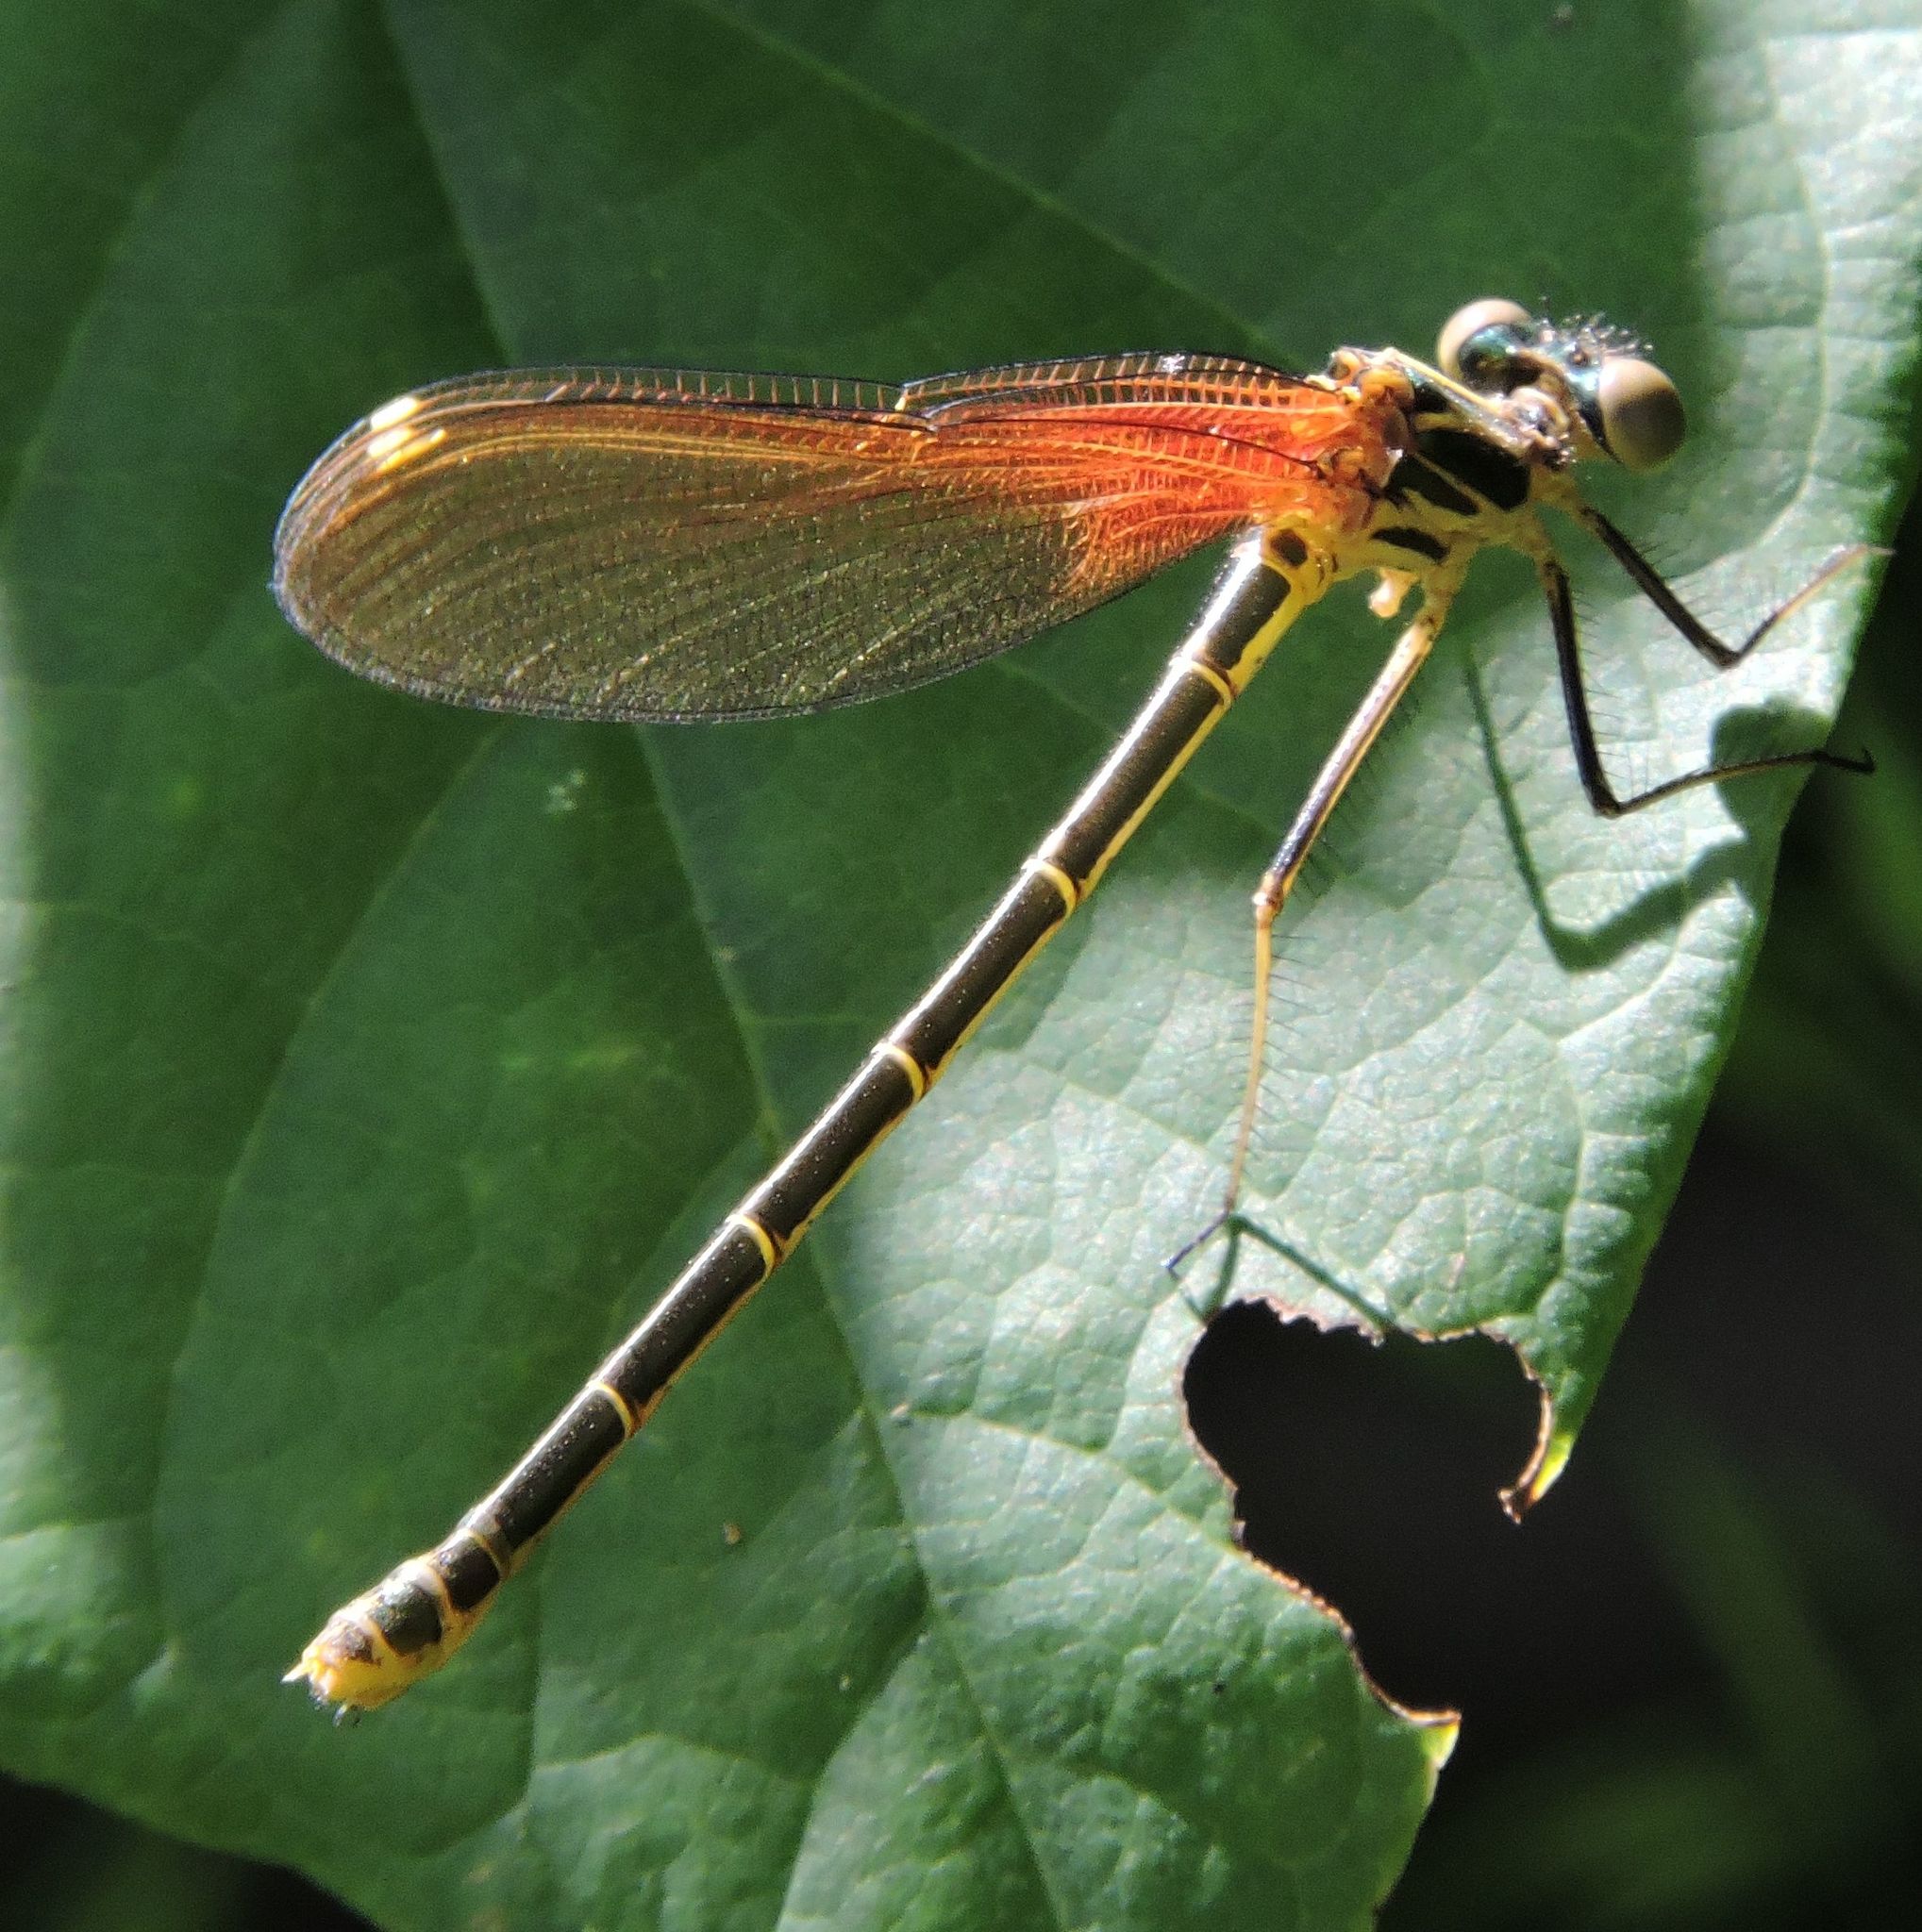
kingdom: Animalia
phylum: Arthropoda
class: Insecta
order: Odonata
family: Calopterygidae
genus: Hetaerina
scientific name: Hetaerina americana
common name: American rubyspot
